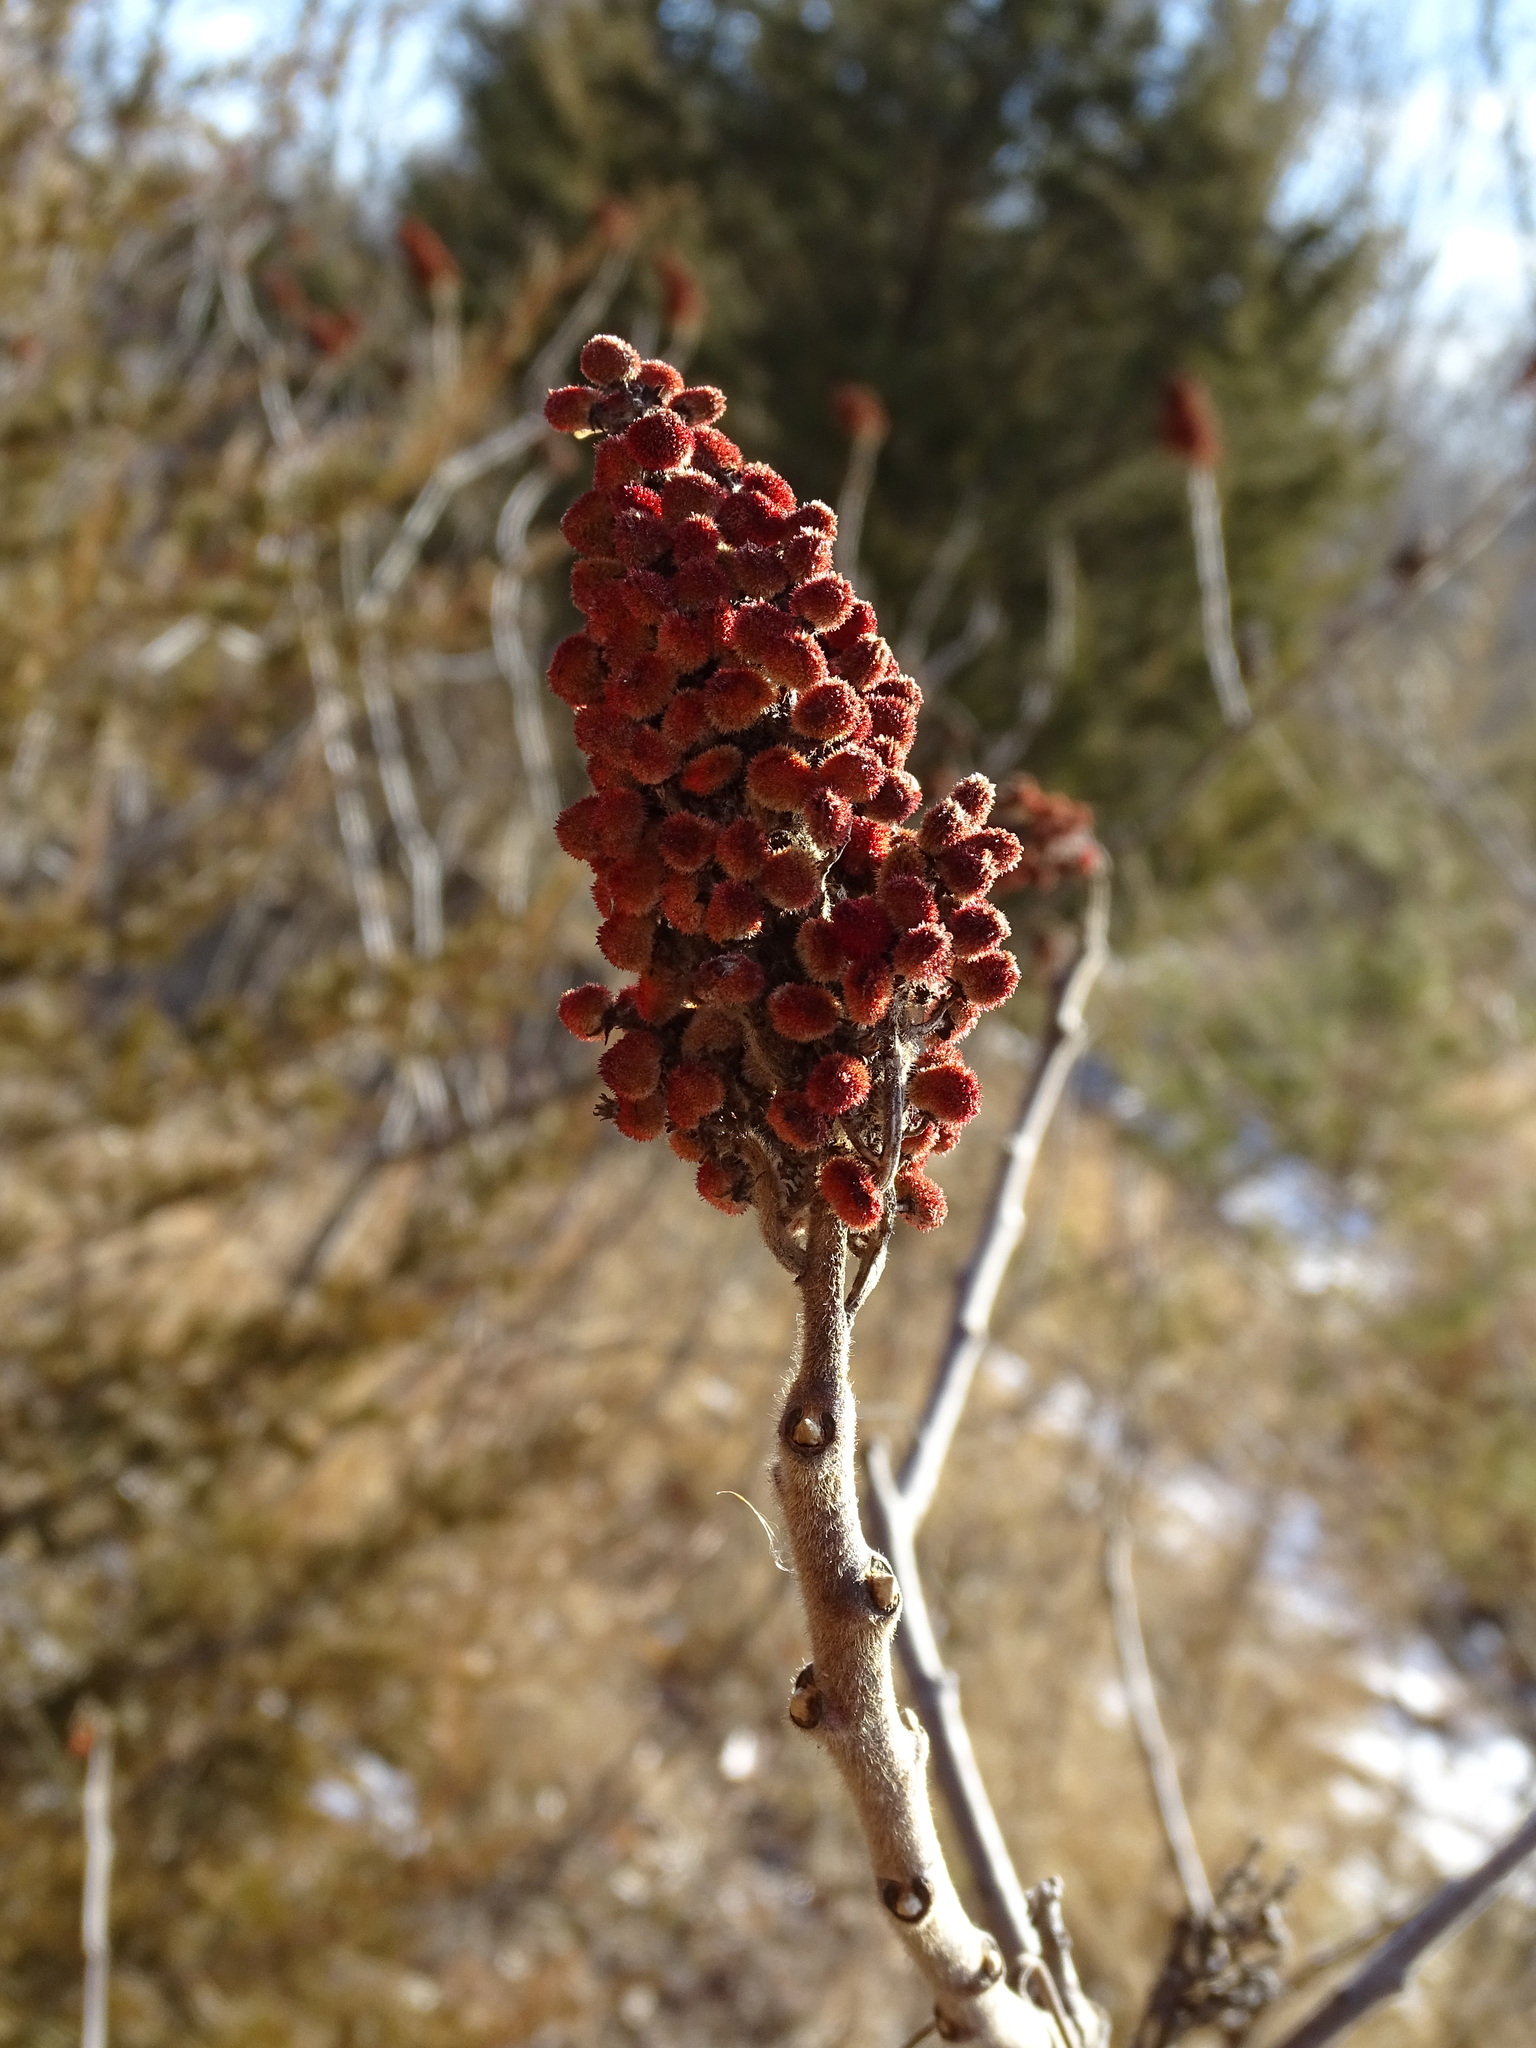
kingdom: Plantae
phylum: Tracheophyta
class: Magnoliopsida
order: Sapindales
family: Anacardiaceae
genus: Rhus
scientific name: Rhus typhina
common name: Staghorn sumac
